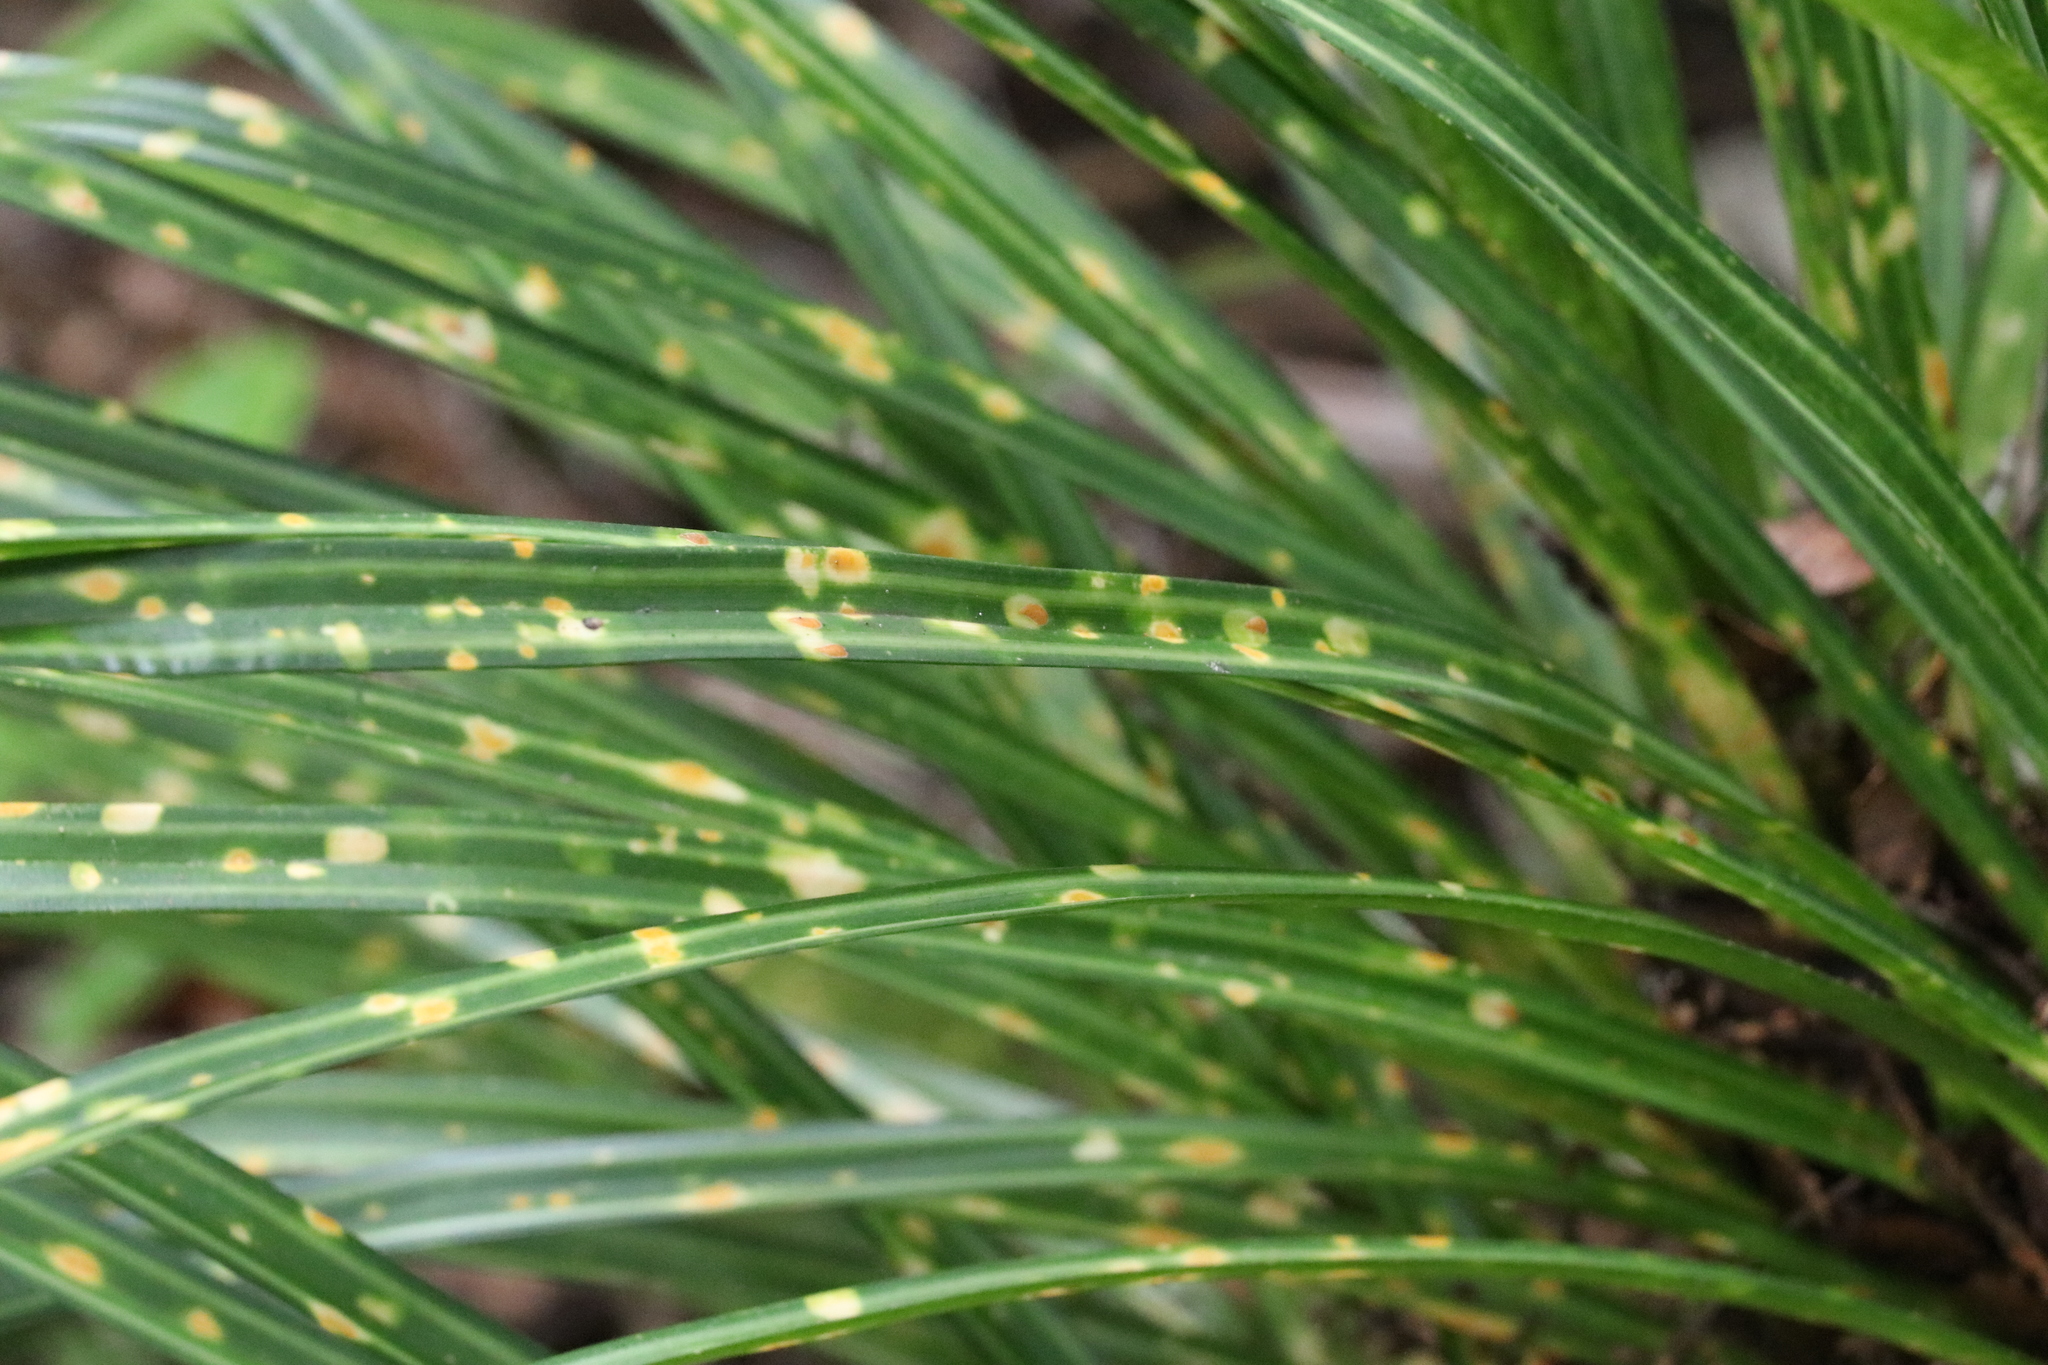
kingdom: Plantae
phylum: Tracheophyta
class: Liliopsida
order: Pandanales
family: Pandanaceae
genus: Freycinetia
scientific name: Freycinetia banksii
